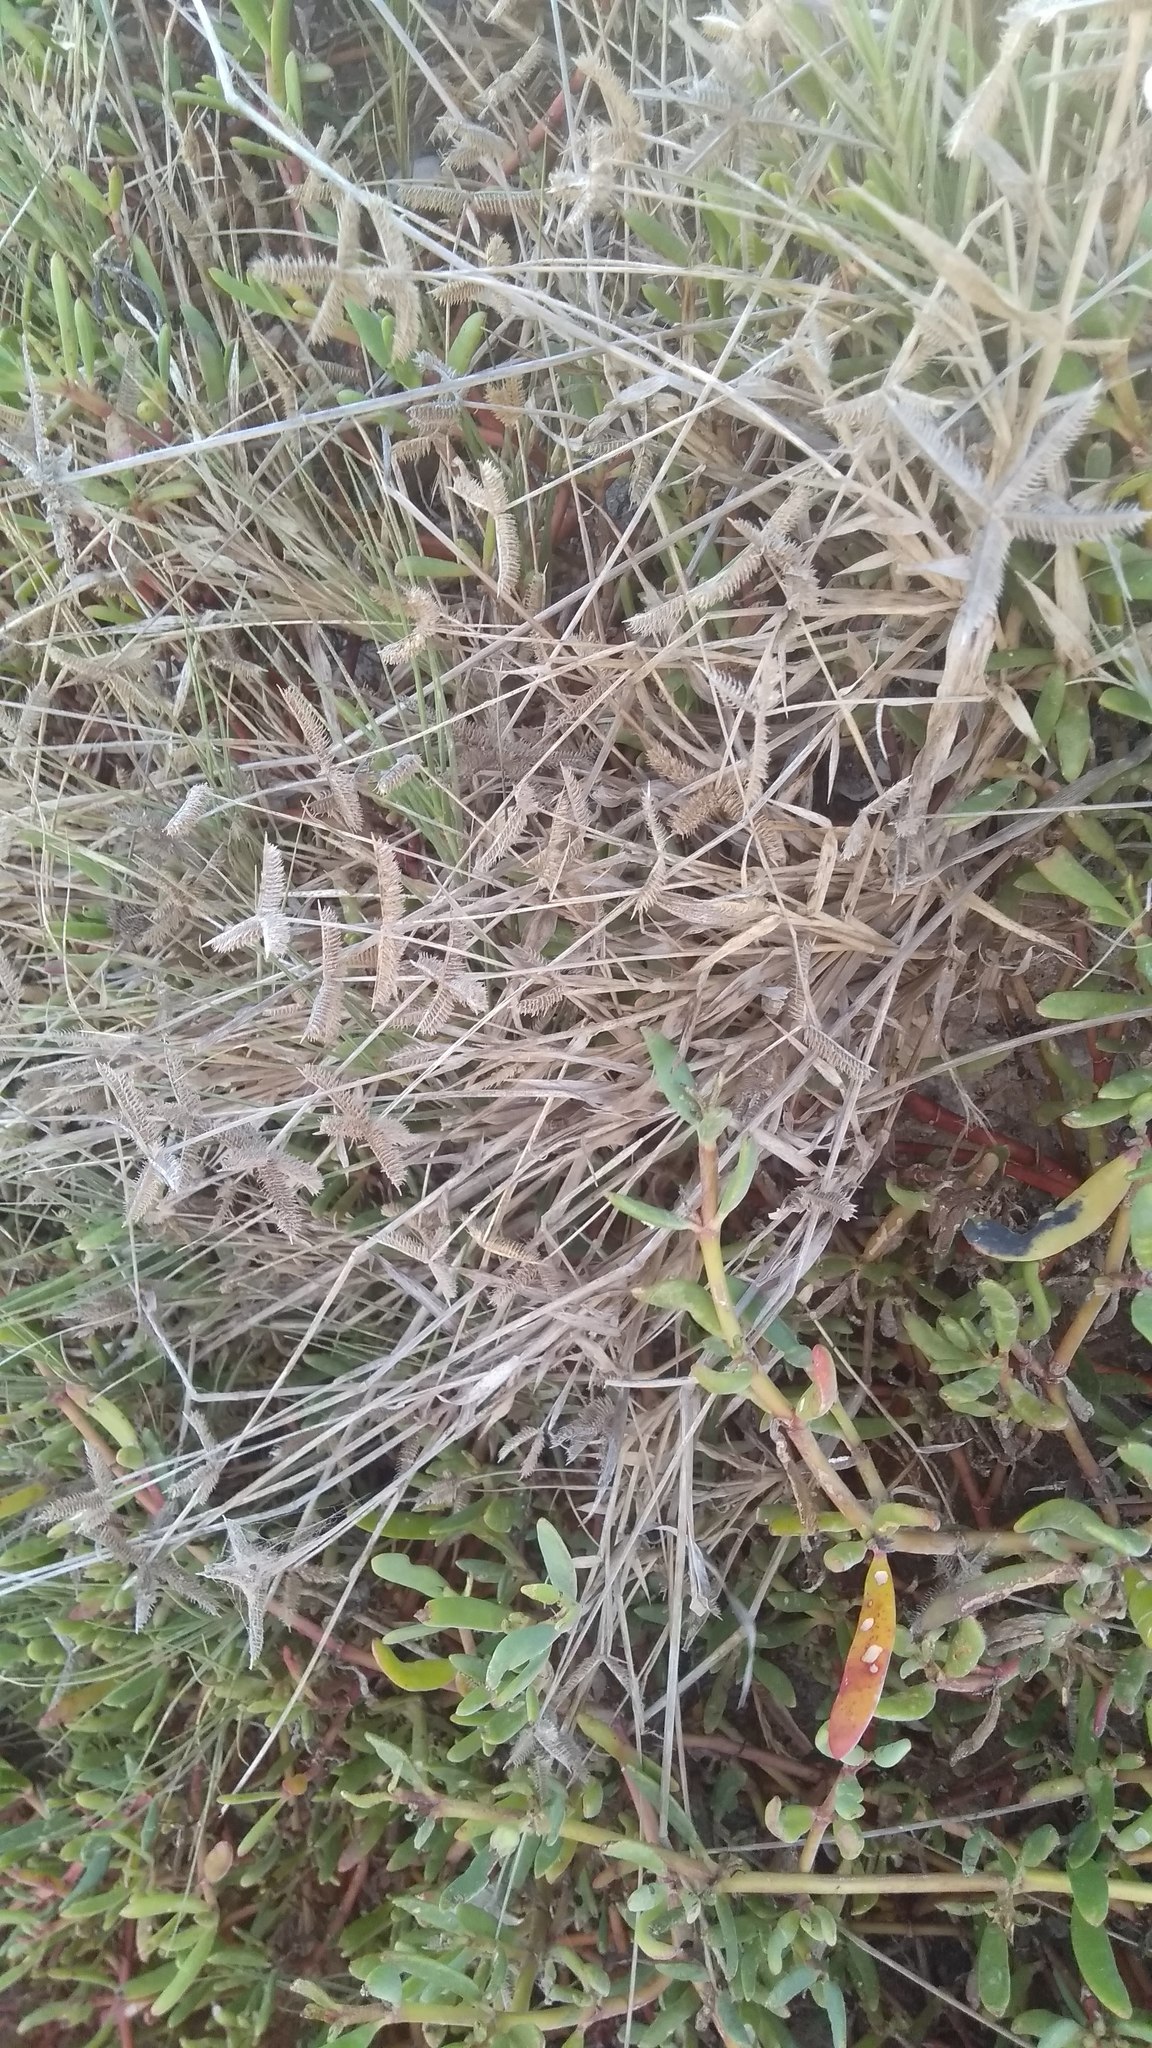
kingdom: Plantae
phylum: Tracheophyta
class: Liliopsida
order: Poales
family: Poaceae
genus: Dactyloctenium
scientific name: Dactyloctenium aegyptium
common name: Egyptian grass
